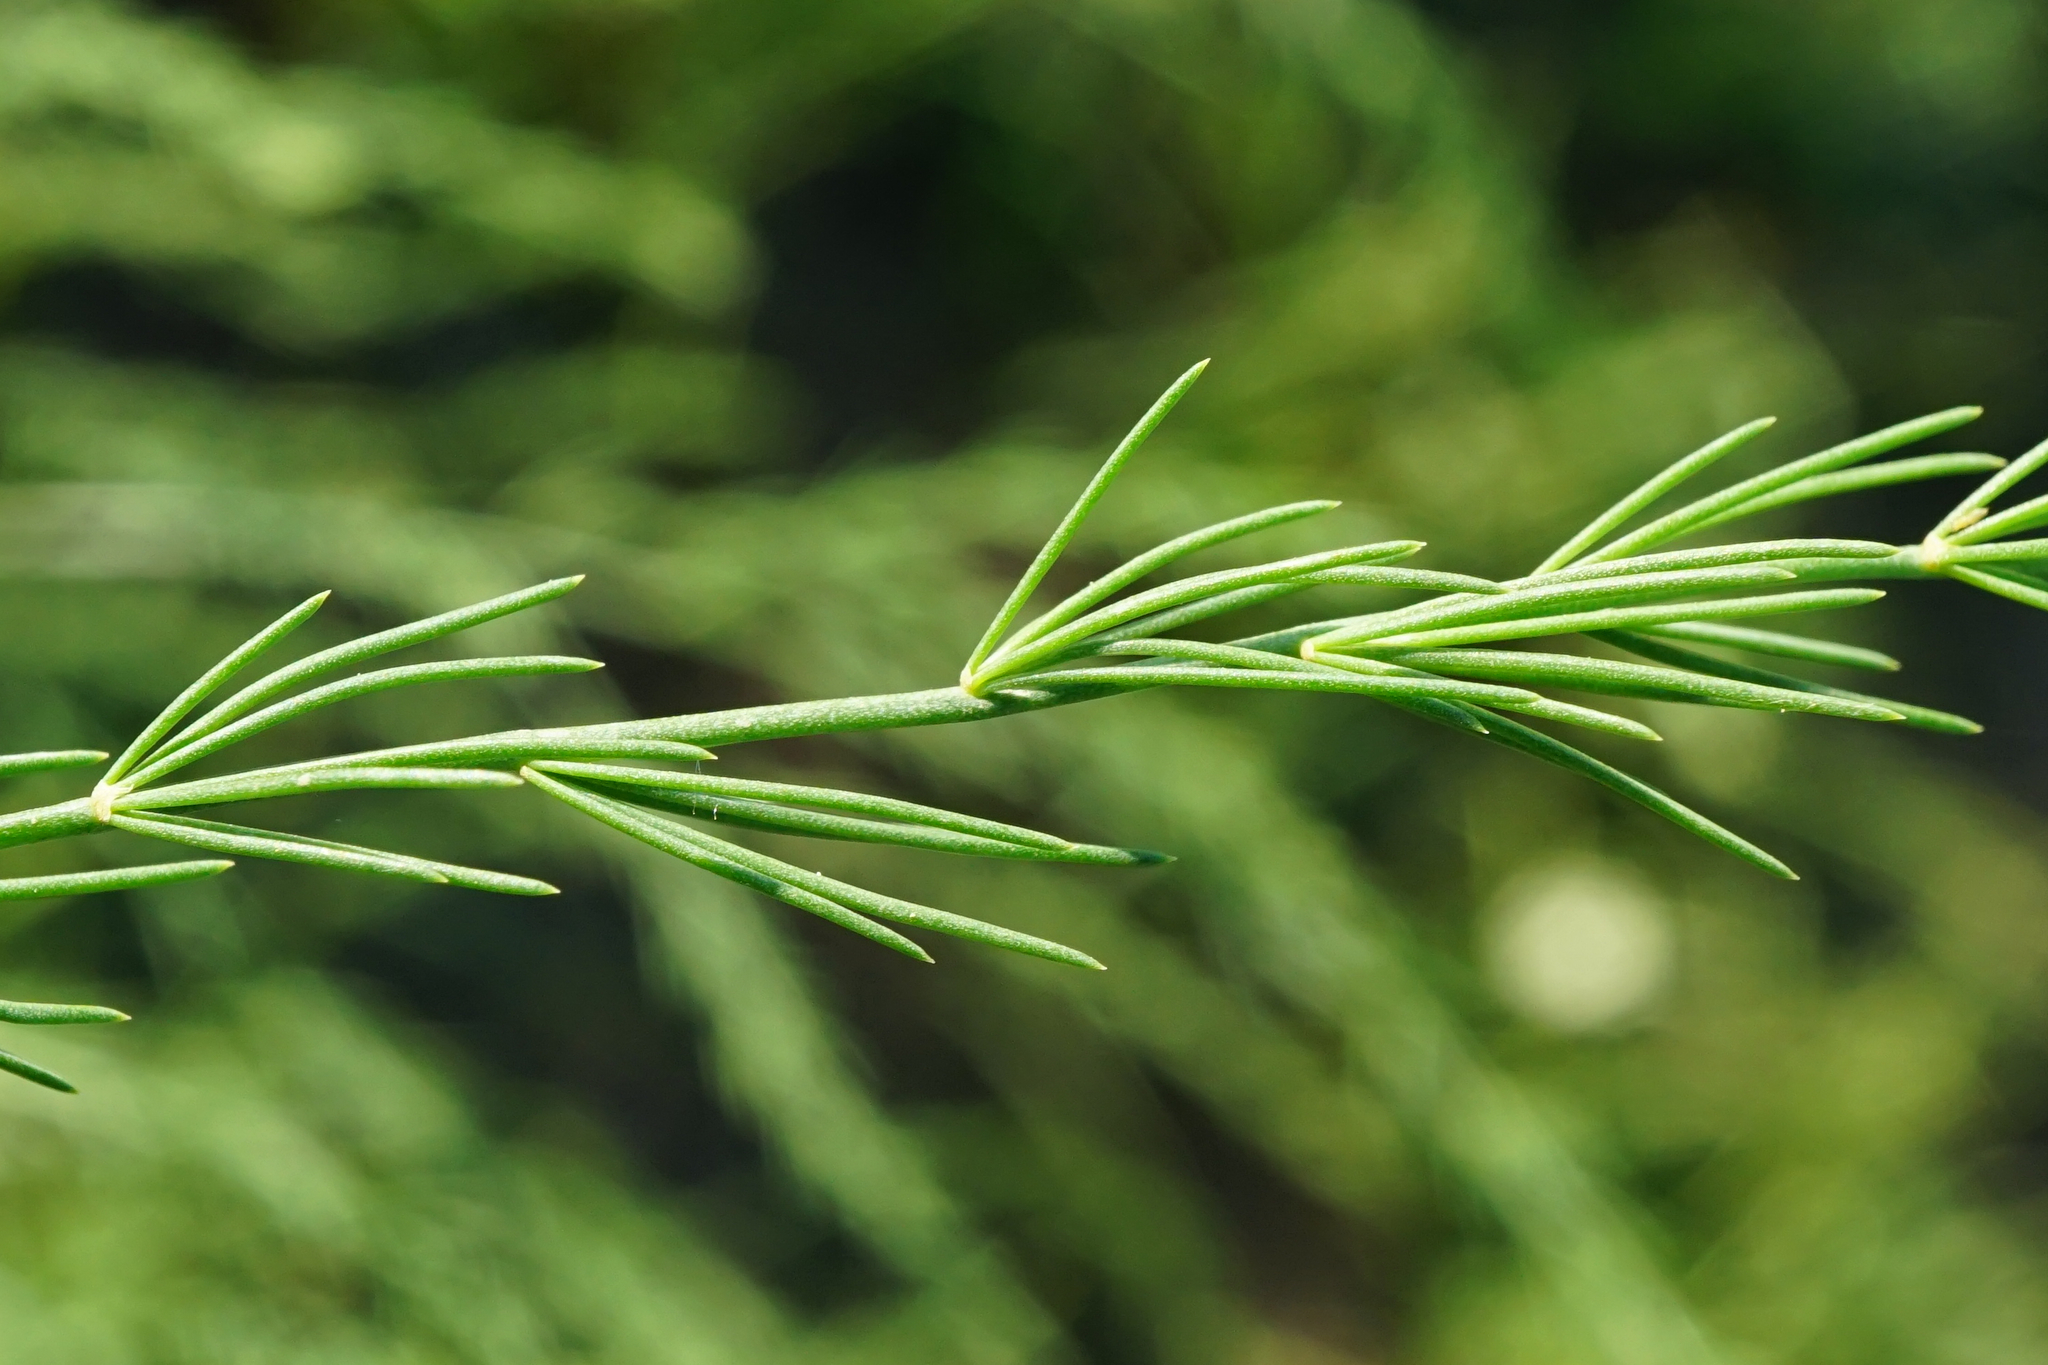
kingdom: Plantae
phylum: Tracheophyta
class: Liliopsida
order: Asparagales
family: Asparagaceae
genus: Asparagus
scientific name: Asparagus officinalis
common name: Garden asparagus
